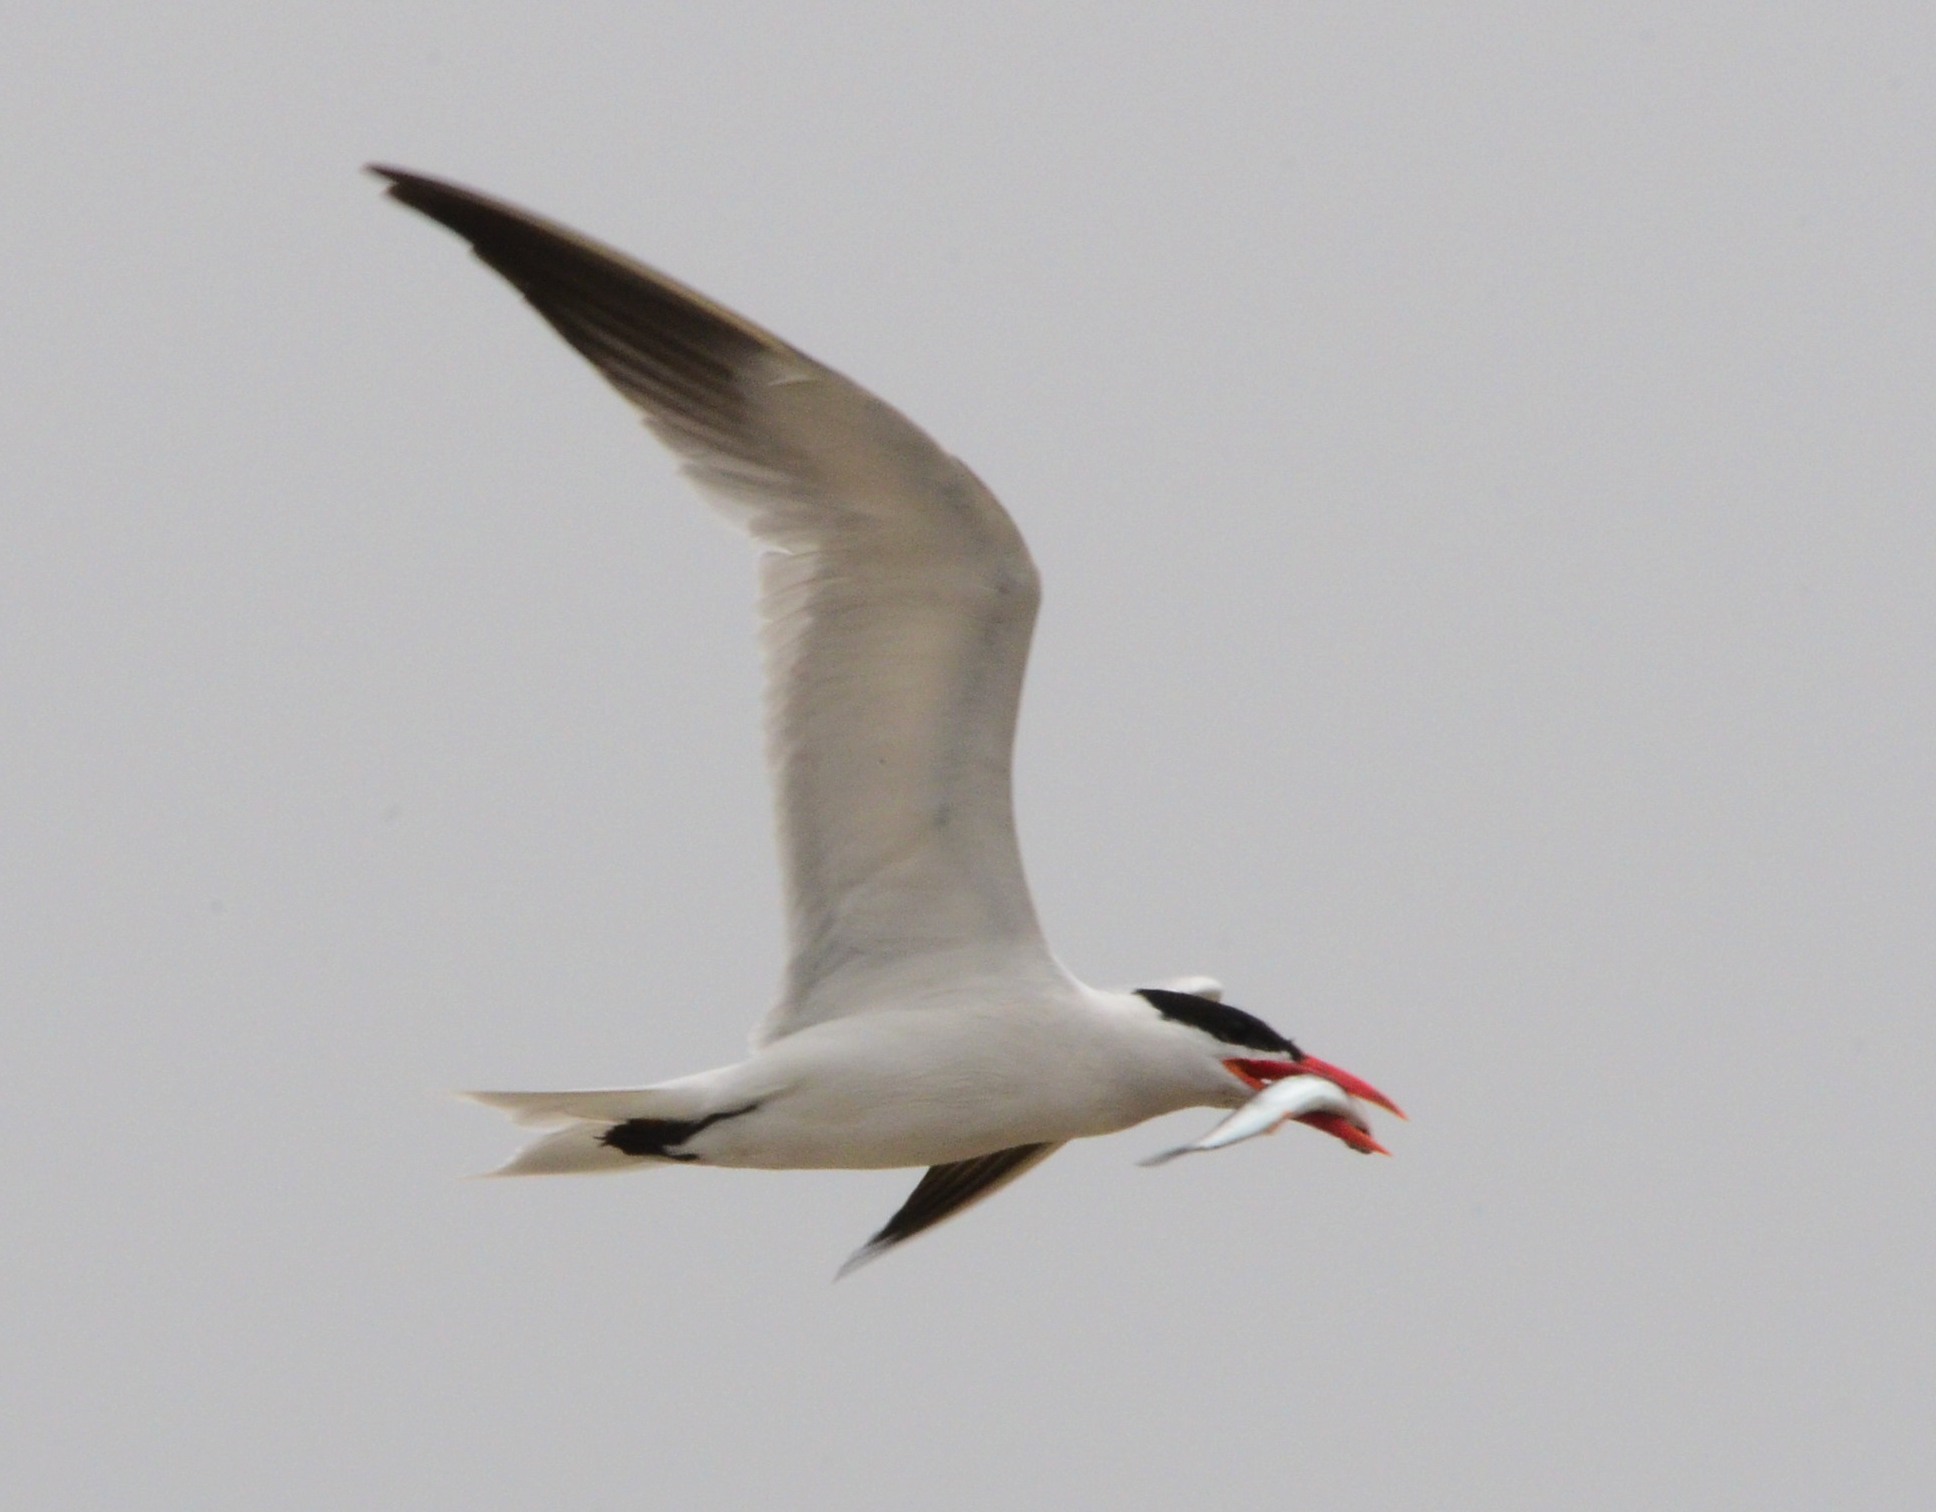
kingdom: Animalia
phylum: Chordata
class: Aves
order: Charadriiformes
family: Laridae
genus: Hydroprogne
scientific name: Hydroprogne caspia
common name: Caspian tern
